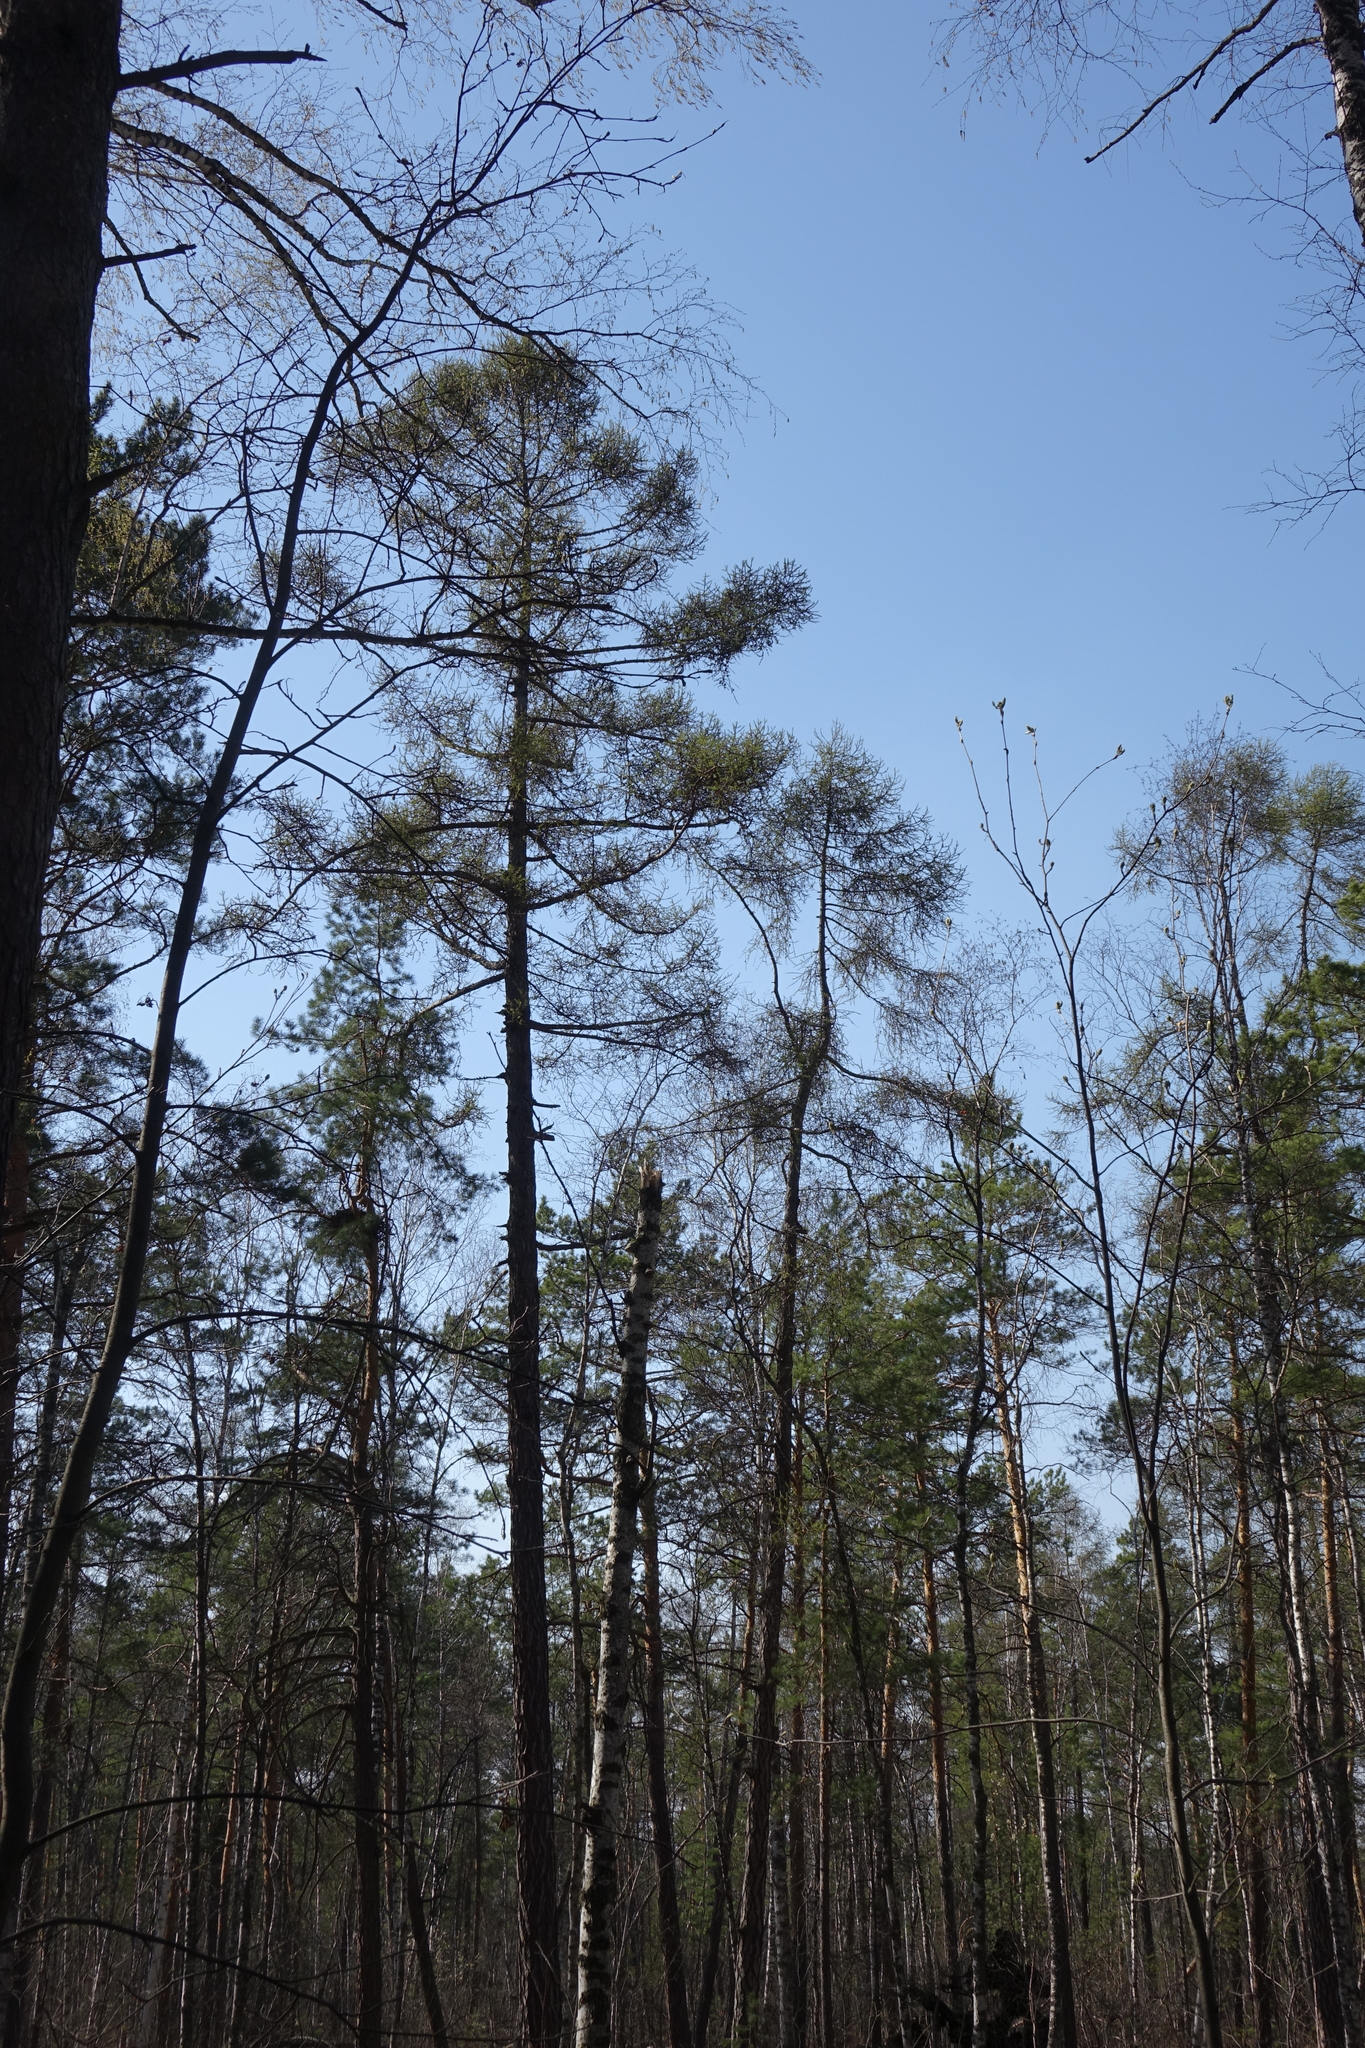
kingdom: Plantae
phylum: Tracheophyta
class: Pinopsida
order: Pinales
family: Pinaceae
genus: Larix
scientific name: Larix sibirica
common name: Siberian larch
